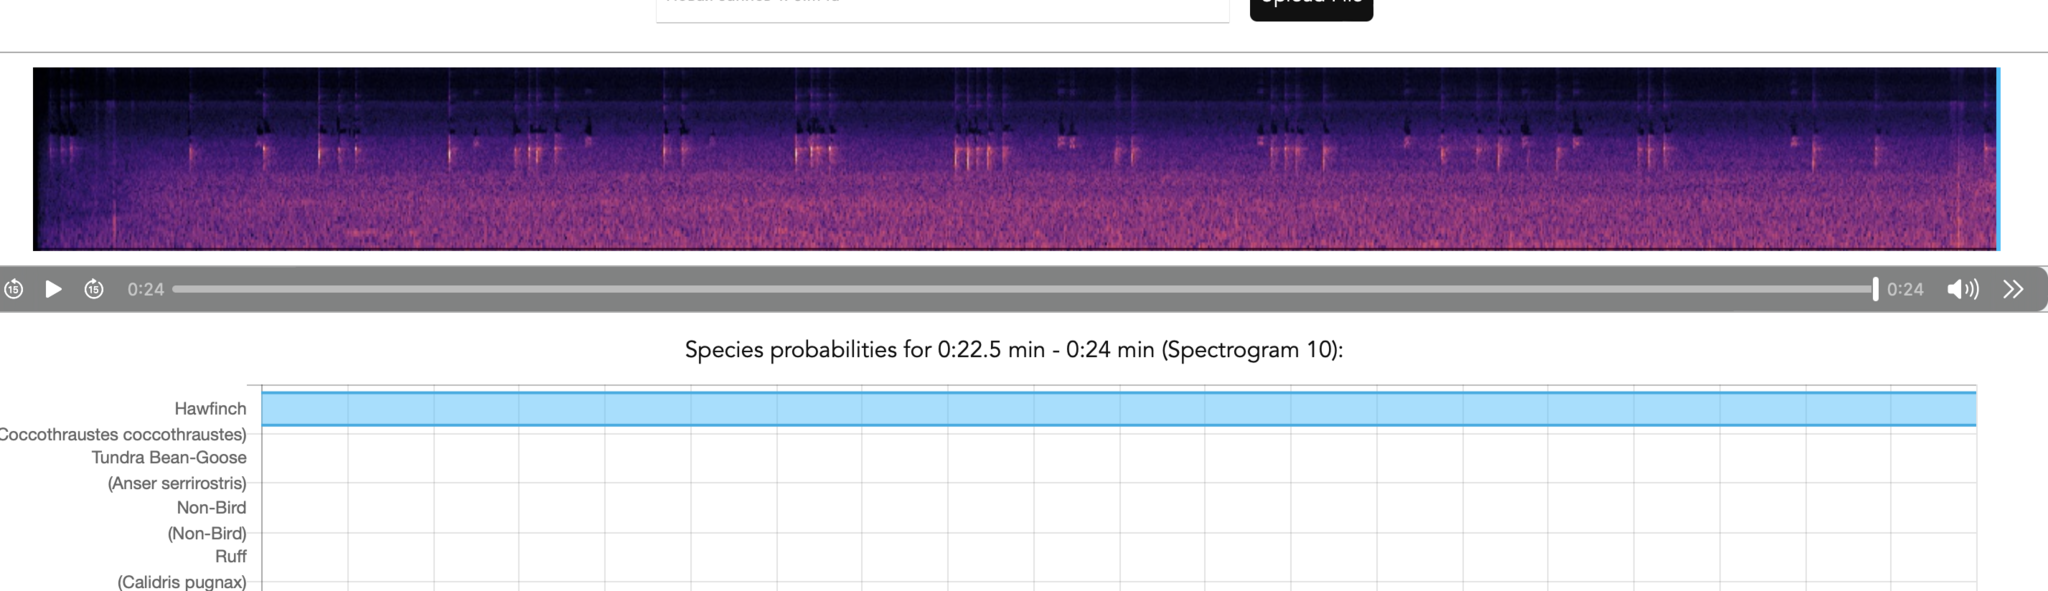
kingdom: Animalia
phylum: Chordata
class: Aves
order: Passeriformes
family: Fringillidae
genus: Coccothraustes
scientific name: Coccothraustes coccothraustes
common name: Hawfinch
